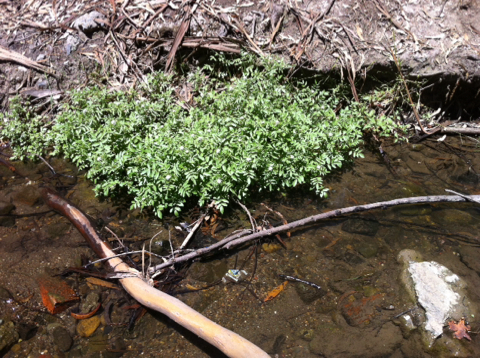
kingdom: Plantae
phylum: Tracheophyta
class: Magnoliopsida
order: Brassicales
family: Brassicaceae
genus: Nasturtium
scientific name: Nasturtium officinale
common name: Watercress
